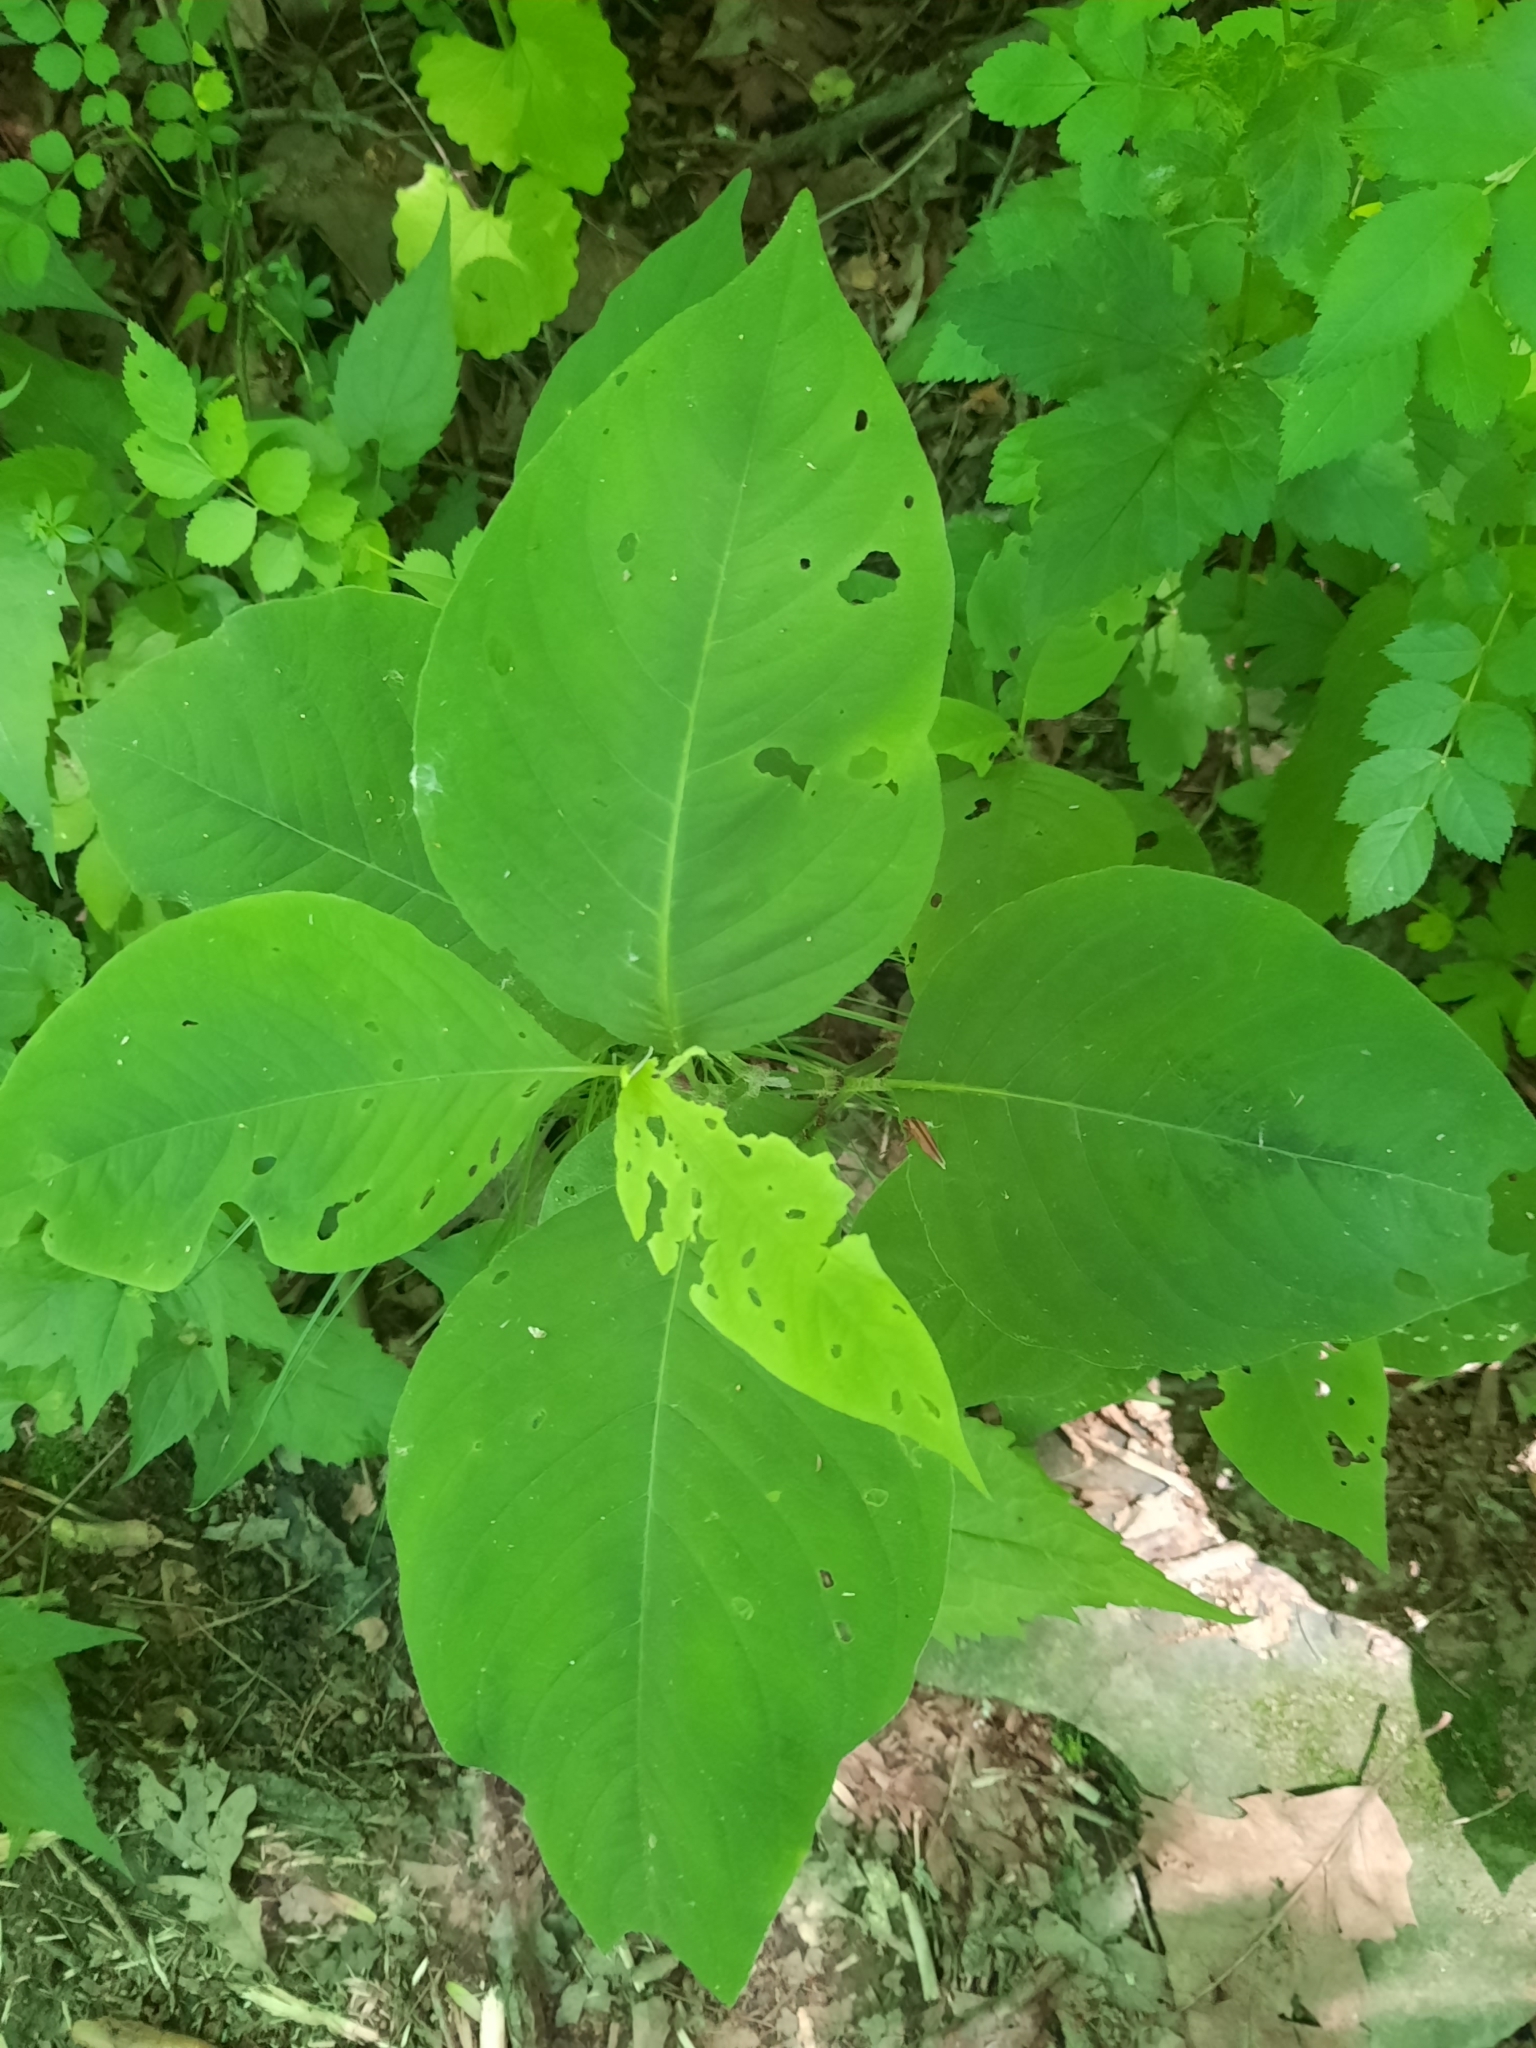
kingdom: Plantae
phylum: Tracheophyta
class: Magnoliopsida
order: Caryophyllales
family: Polygonaceae
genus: Persicaria
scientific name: Persicaria virginiana
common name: Jumpseed
